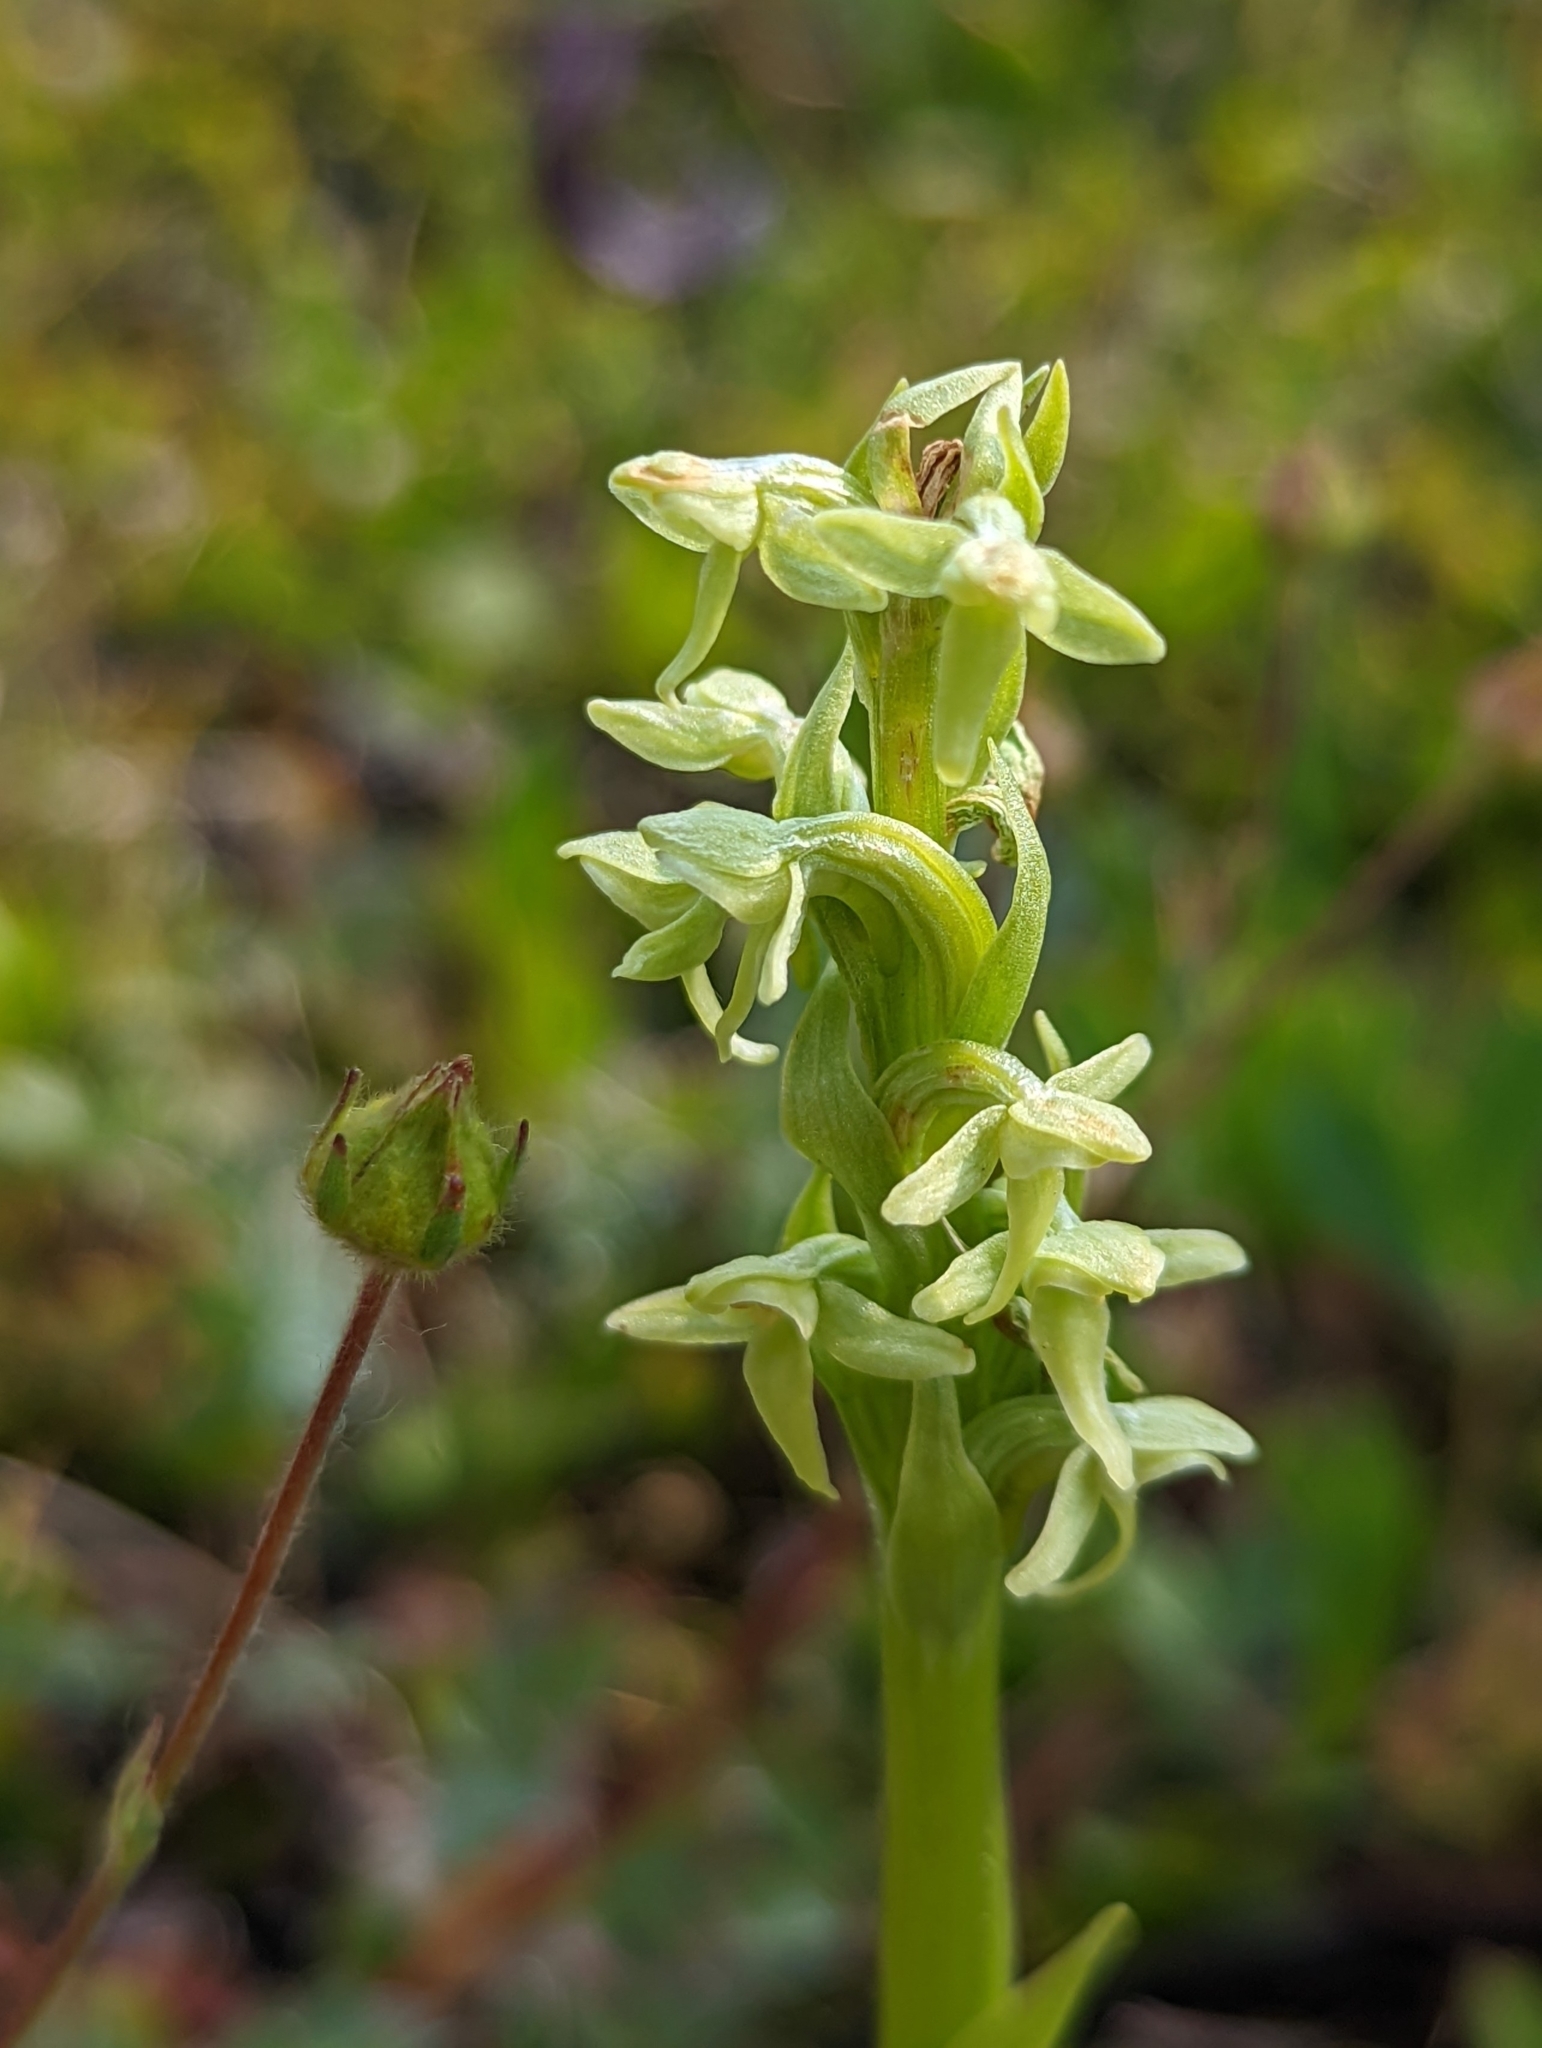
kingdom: Plantae
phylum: Tracheophyta
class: Liliopsida
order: Asparagales
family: Orchidaceae
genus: Platanthera
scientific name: Platanthera huronensis
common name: Fragrant green orchid
